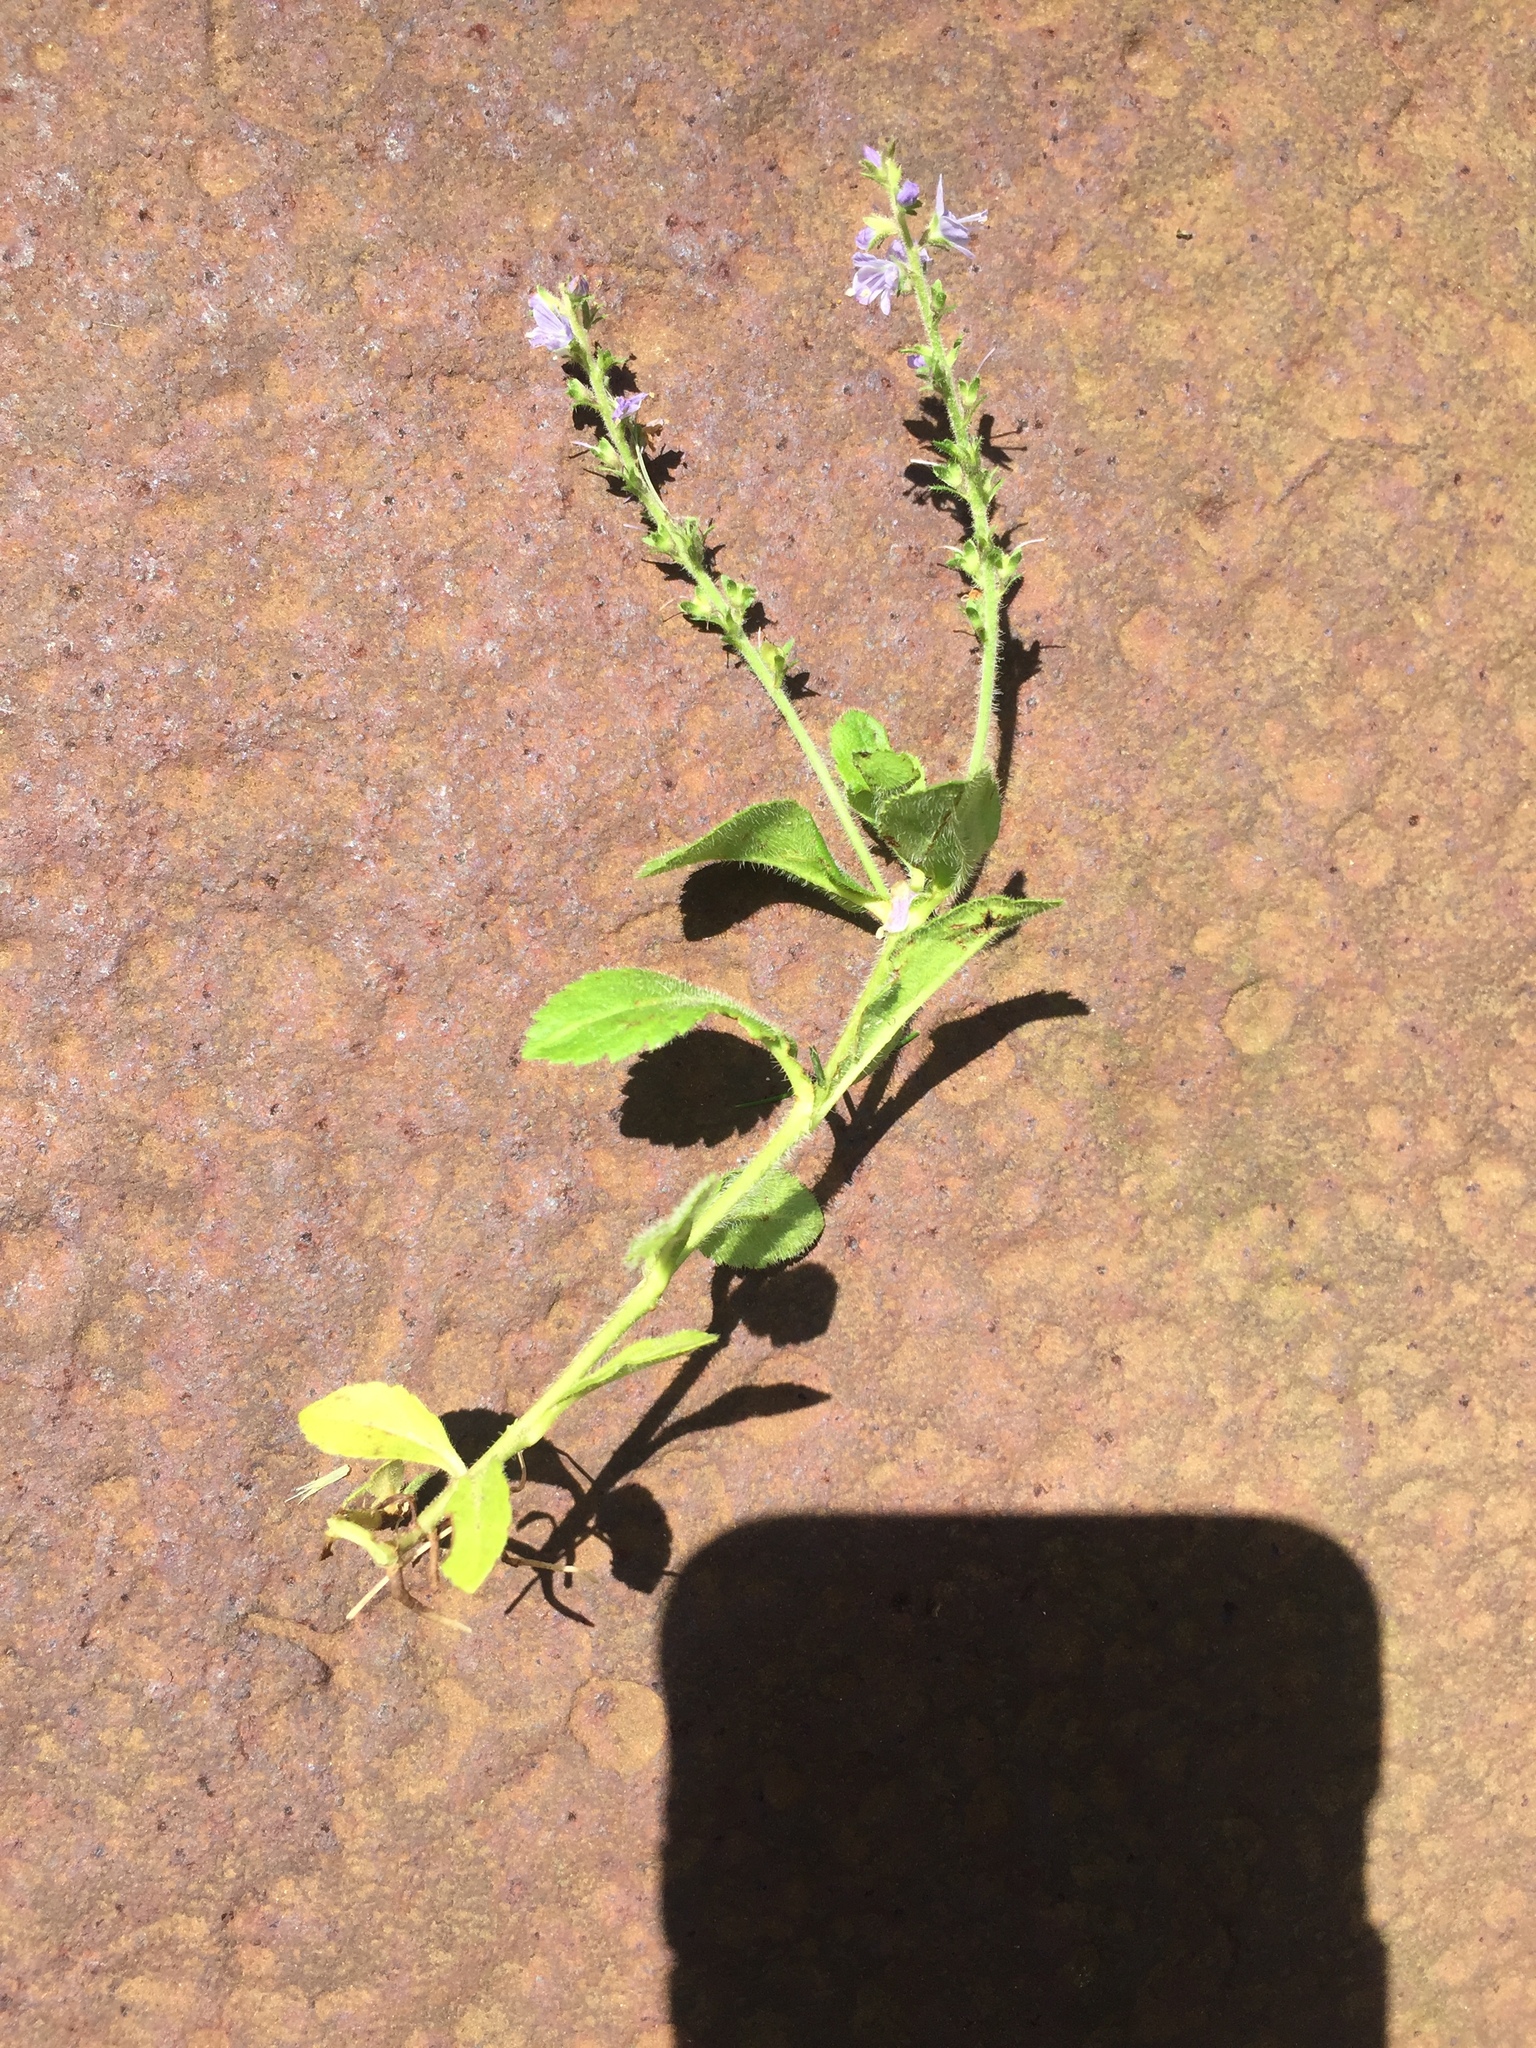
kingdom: Plantae
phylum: Tracheophyta
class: Magnoliopsida
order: Lamiales
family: Plantaginaceae
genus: Veronica
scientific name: Veronica officinalis
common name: Common speedwell
